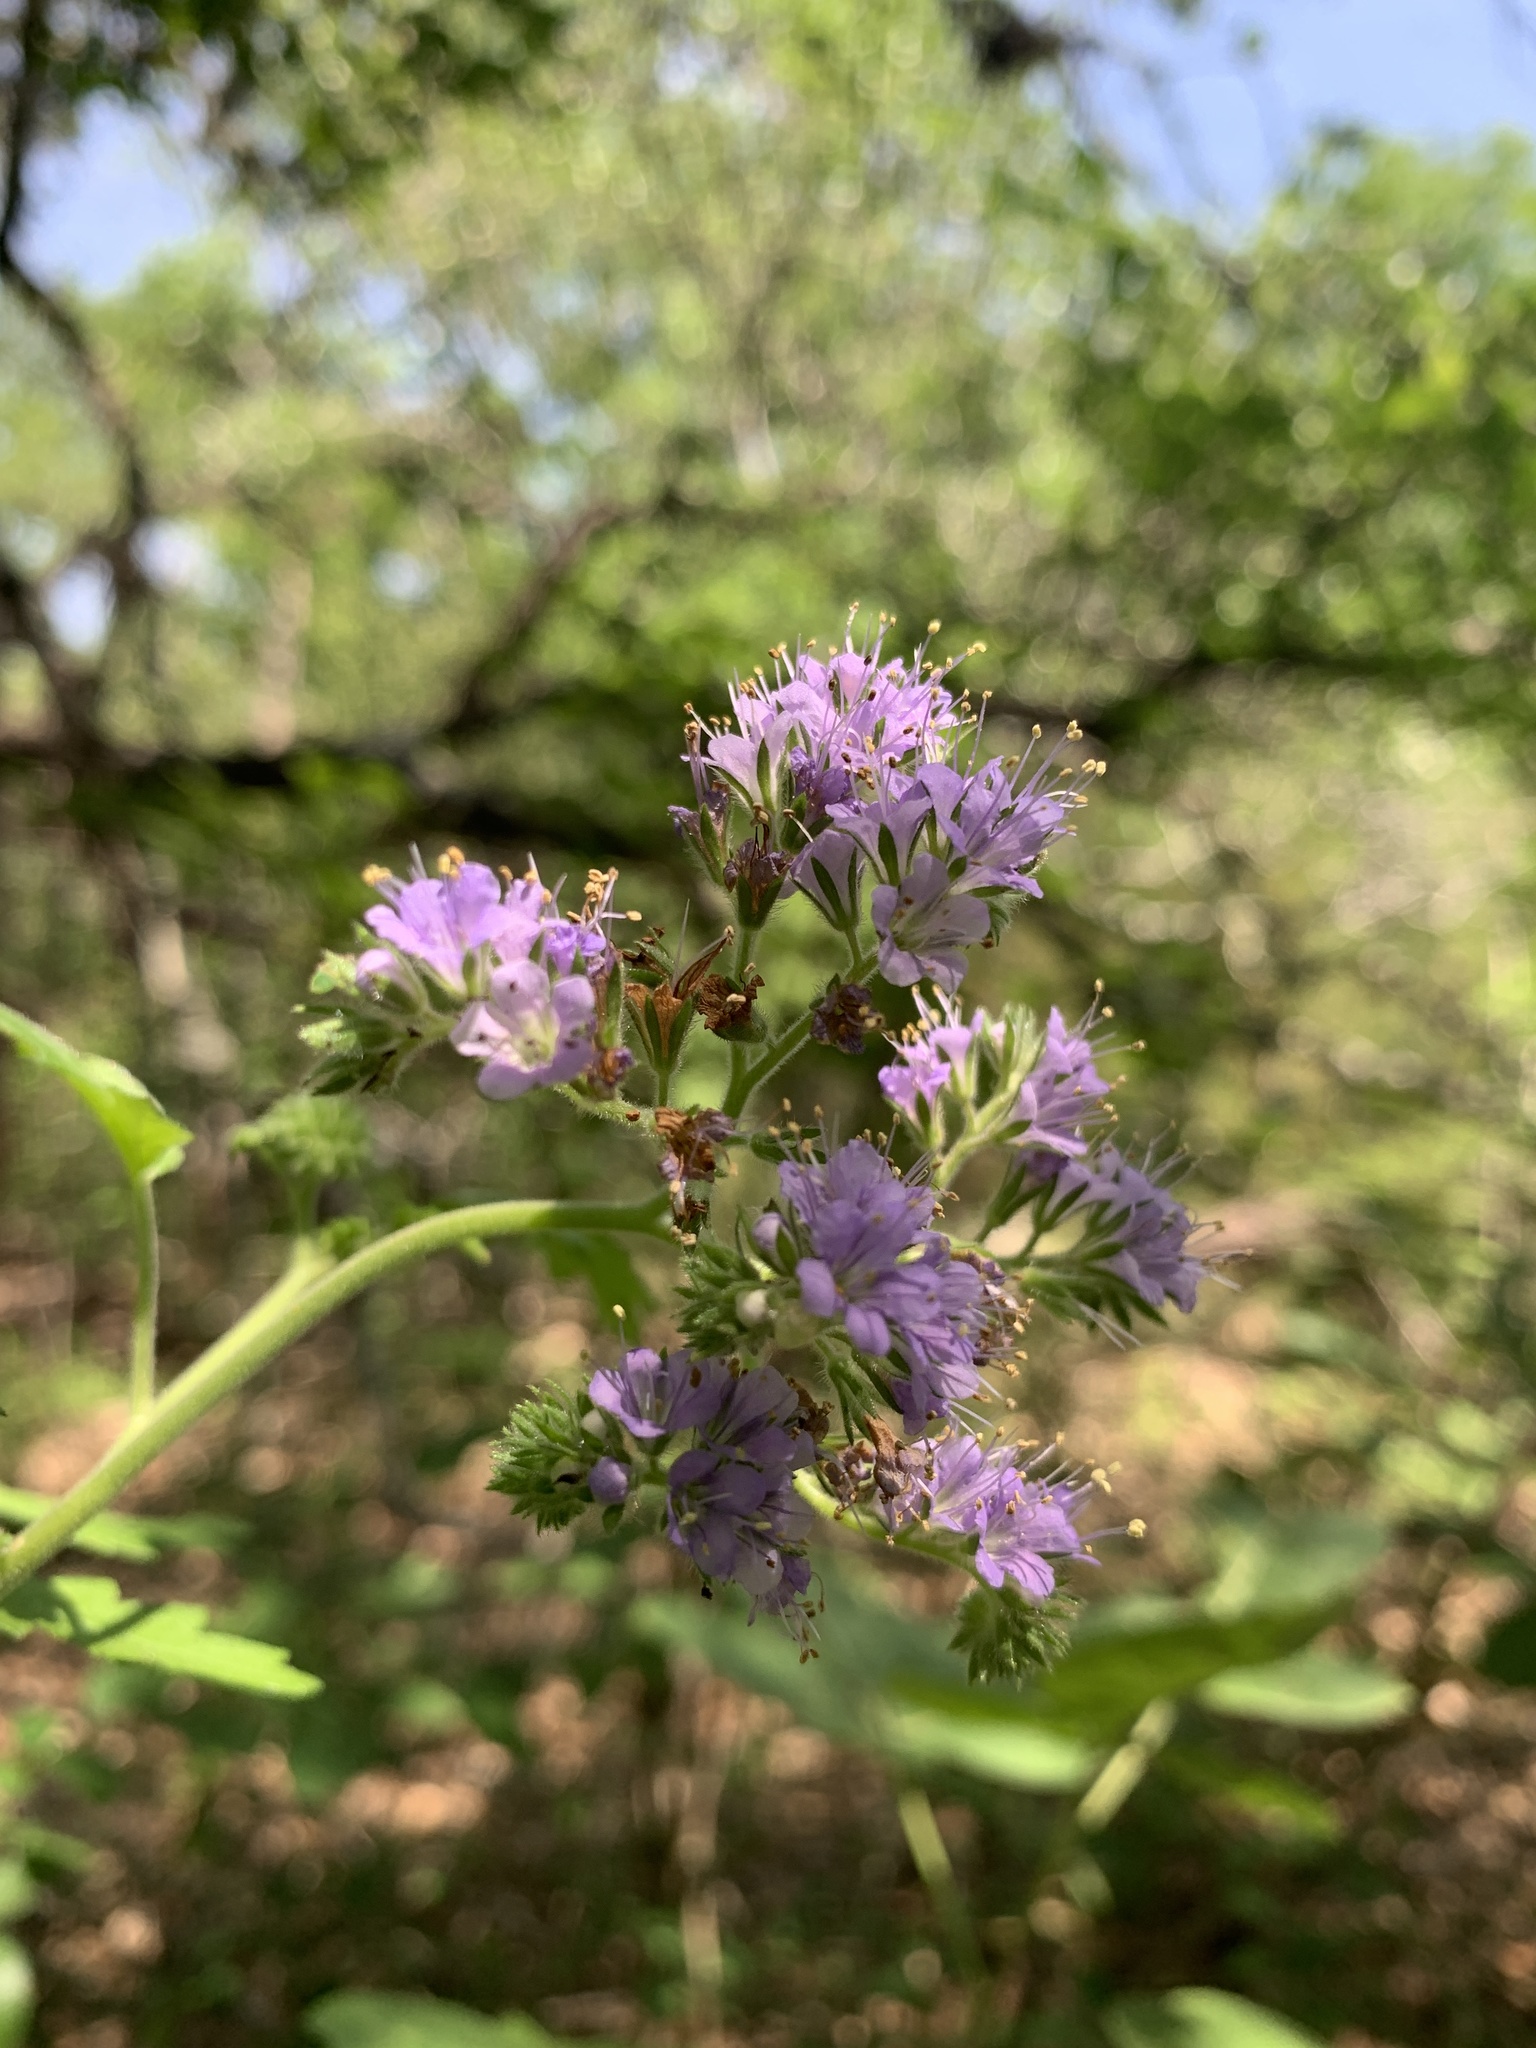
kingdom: Plantae
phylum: Tracheophyta
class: Magnoliopsida
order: Boraginales
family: Hydrophyllaceae
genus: Phacelia
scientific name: Phacelia congesta
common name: Blue curls
